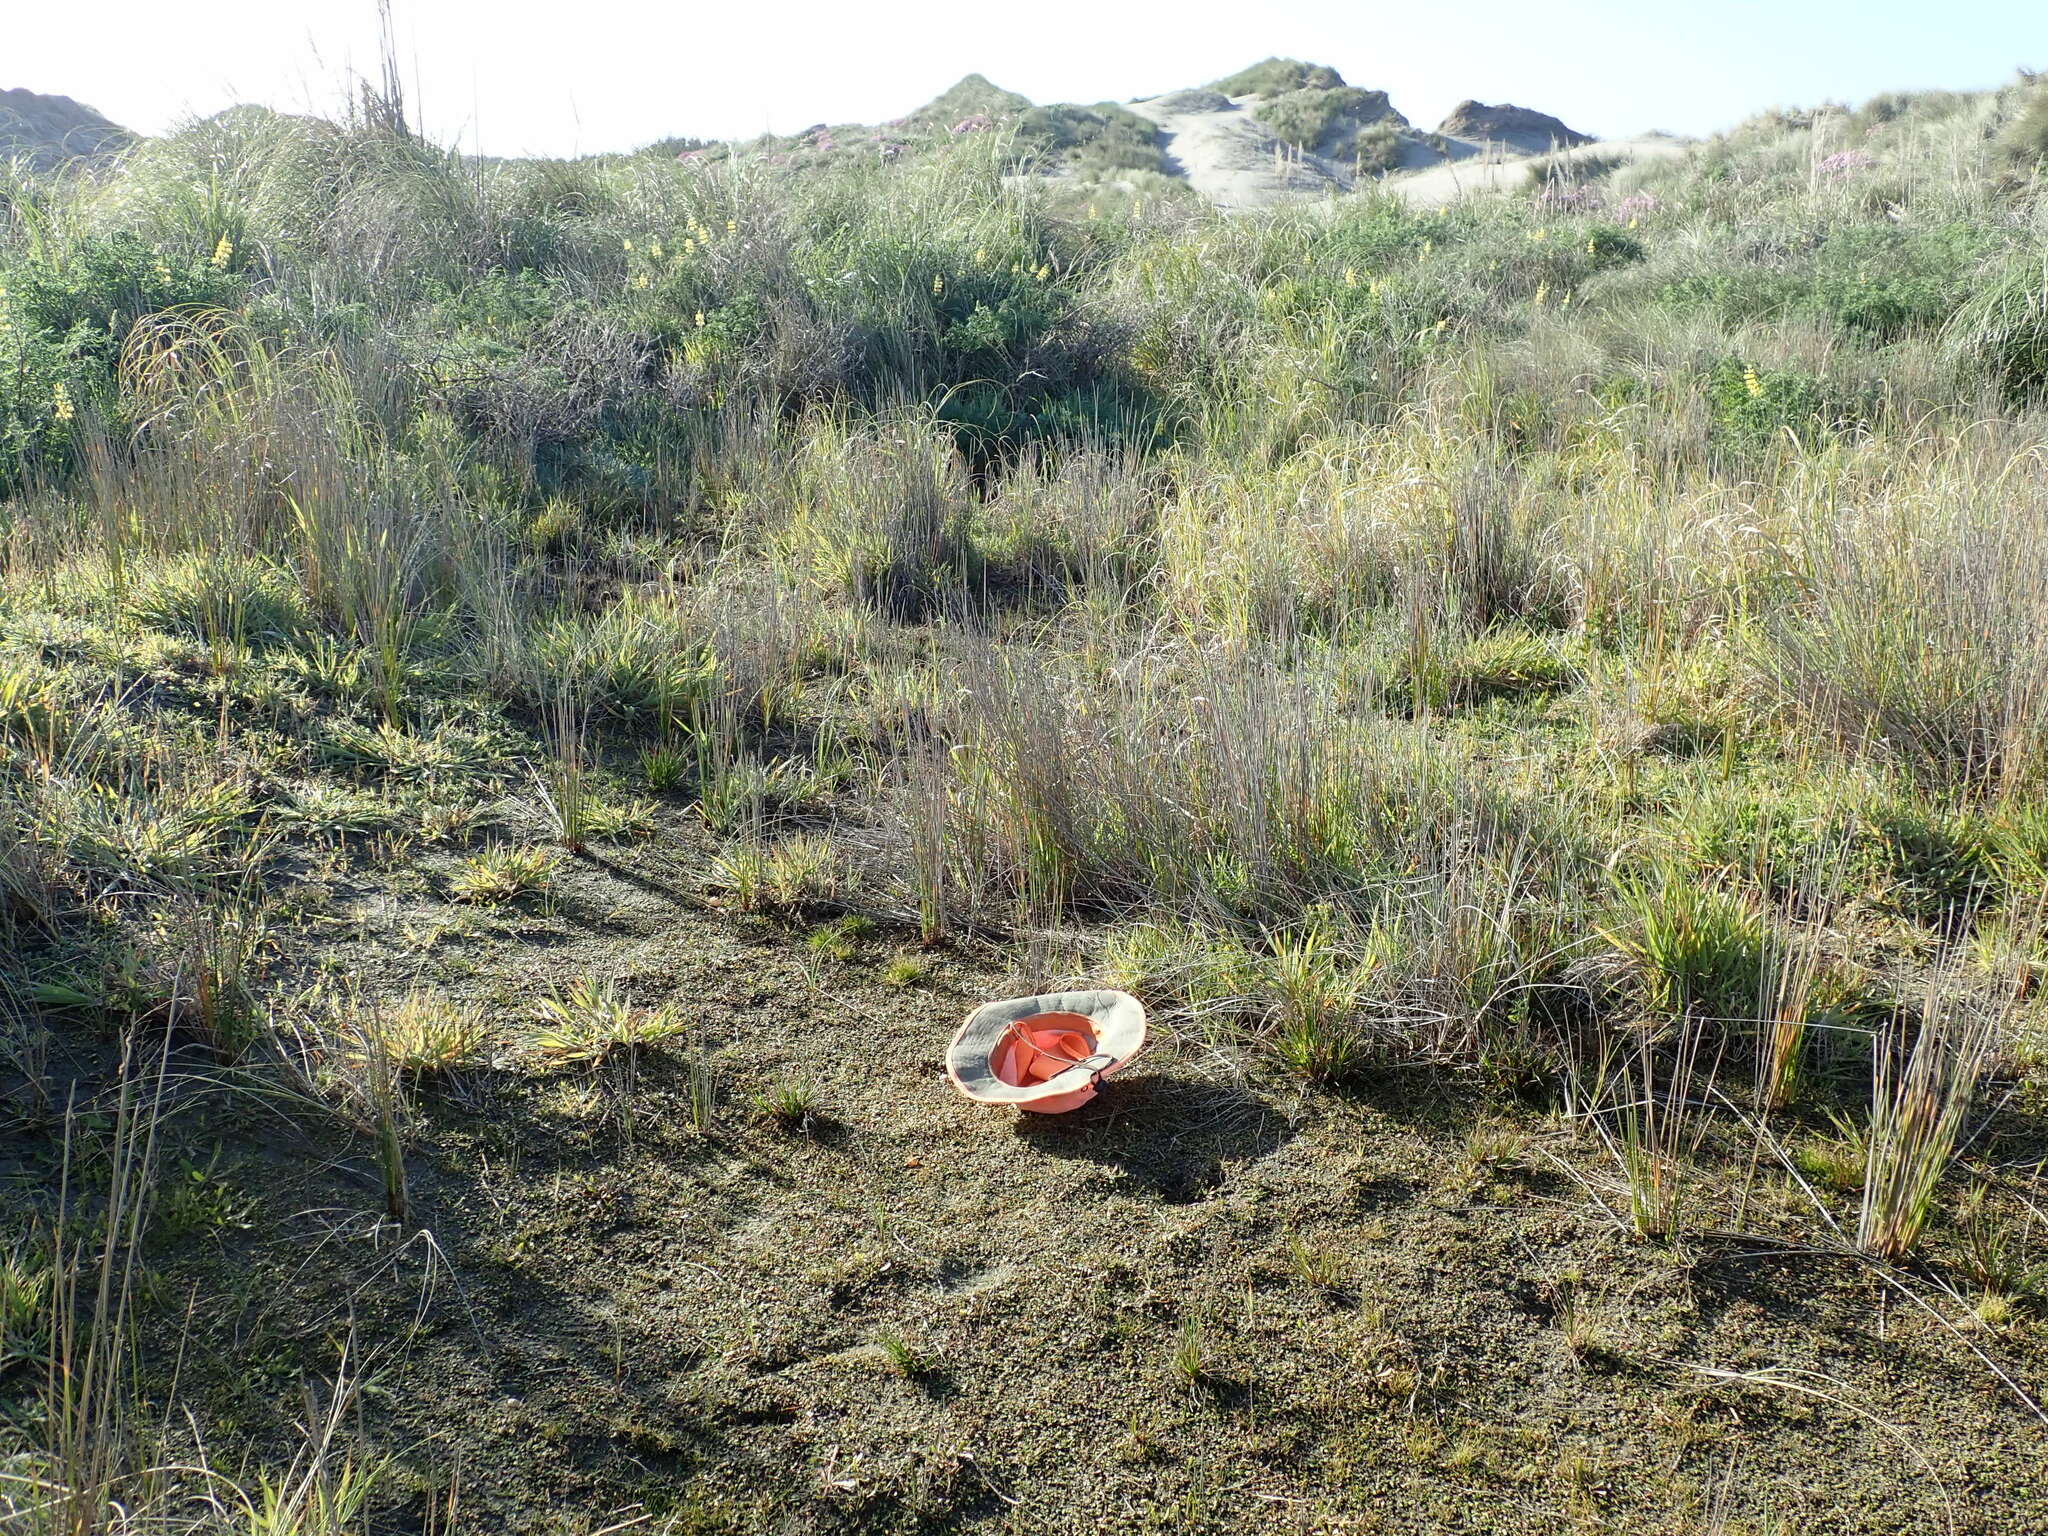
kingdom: Plantae
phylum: Tracheophyta
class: Magnoliopsida
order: Asterales
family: Goodeniaceae
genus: Goodenia
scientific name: Goodenia radicans
